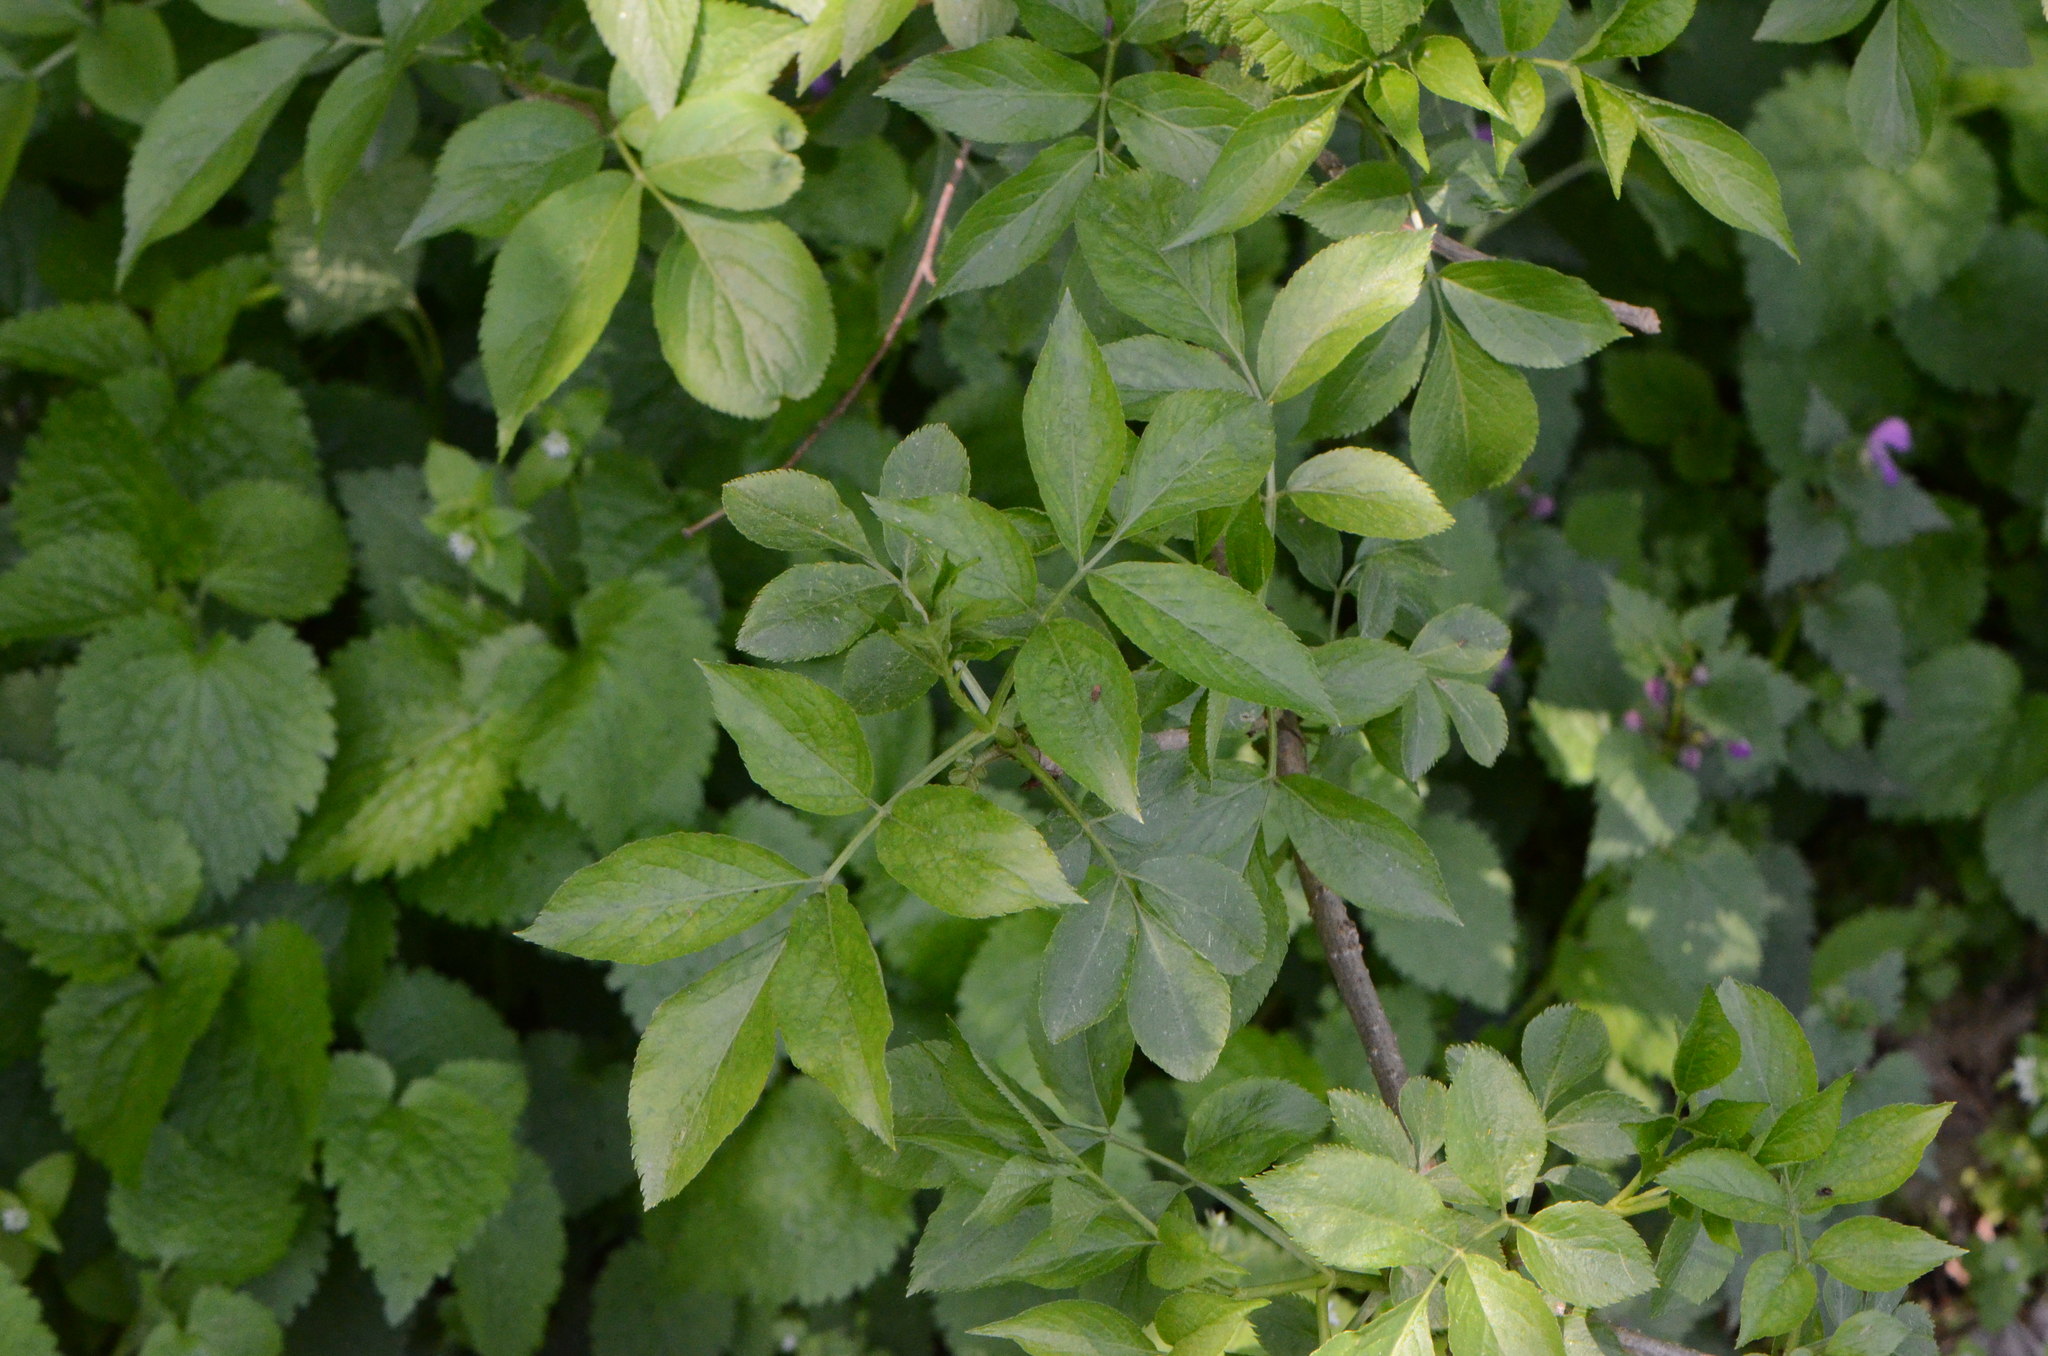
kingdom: Plantae
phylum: Tracheophyta
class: Magnoliopsida
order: Dipsacales
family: Viburnaceae
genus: Sambucus
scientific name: Sambucus nigra
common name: Elder
